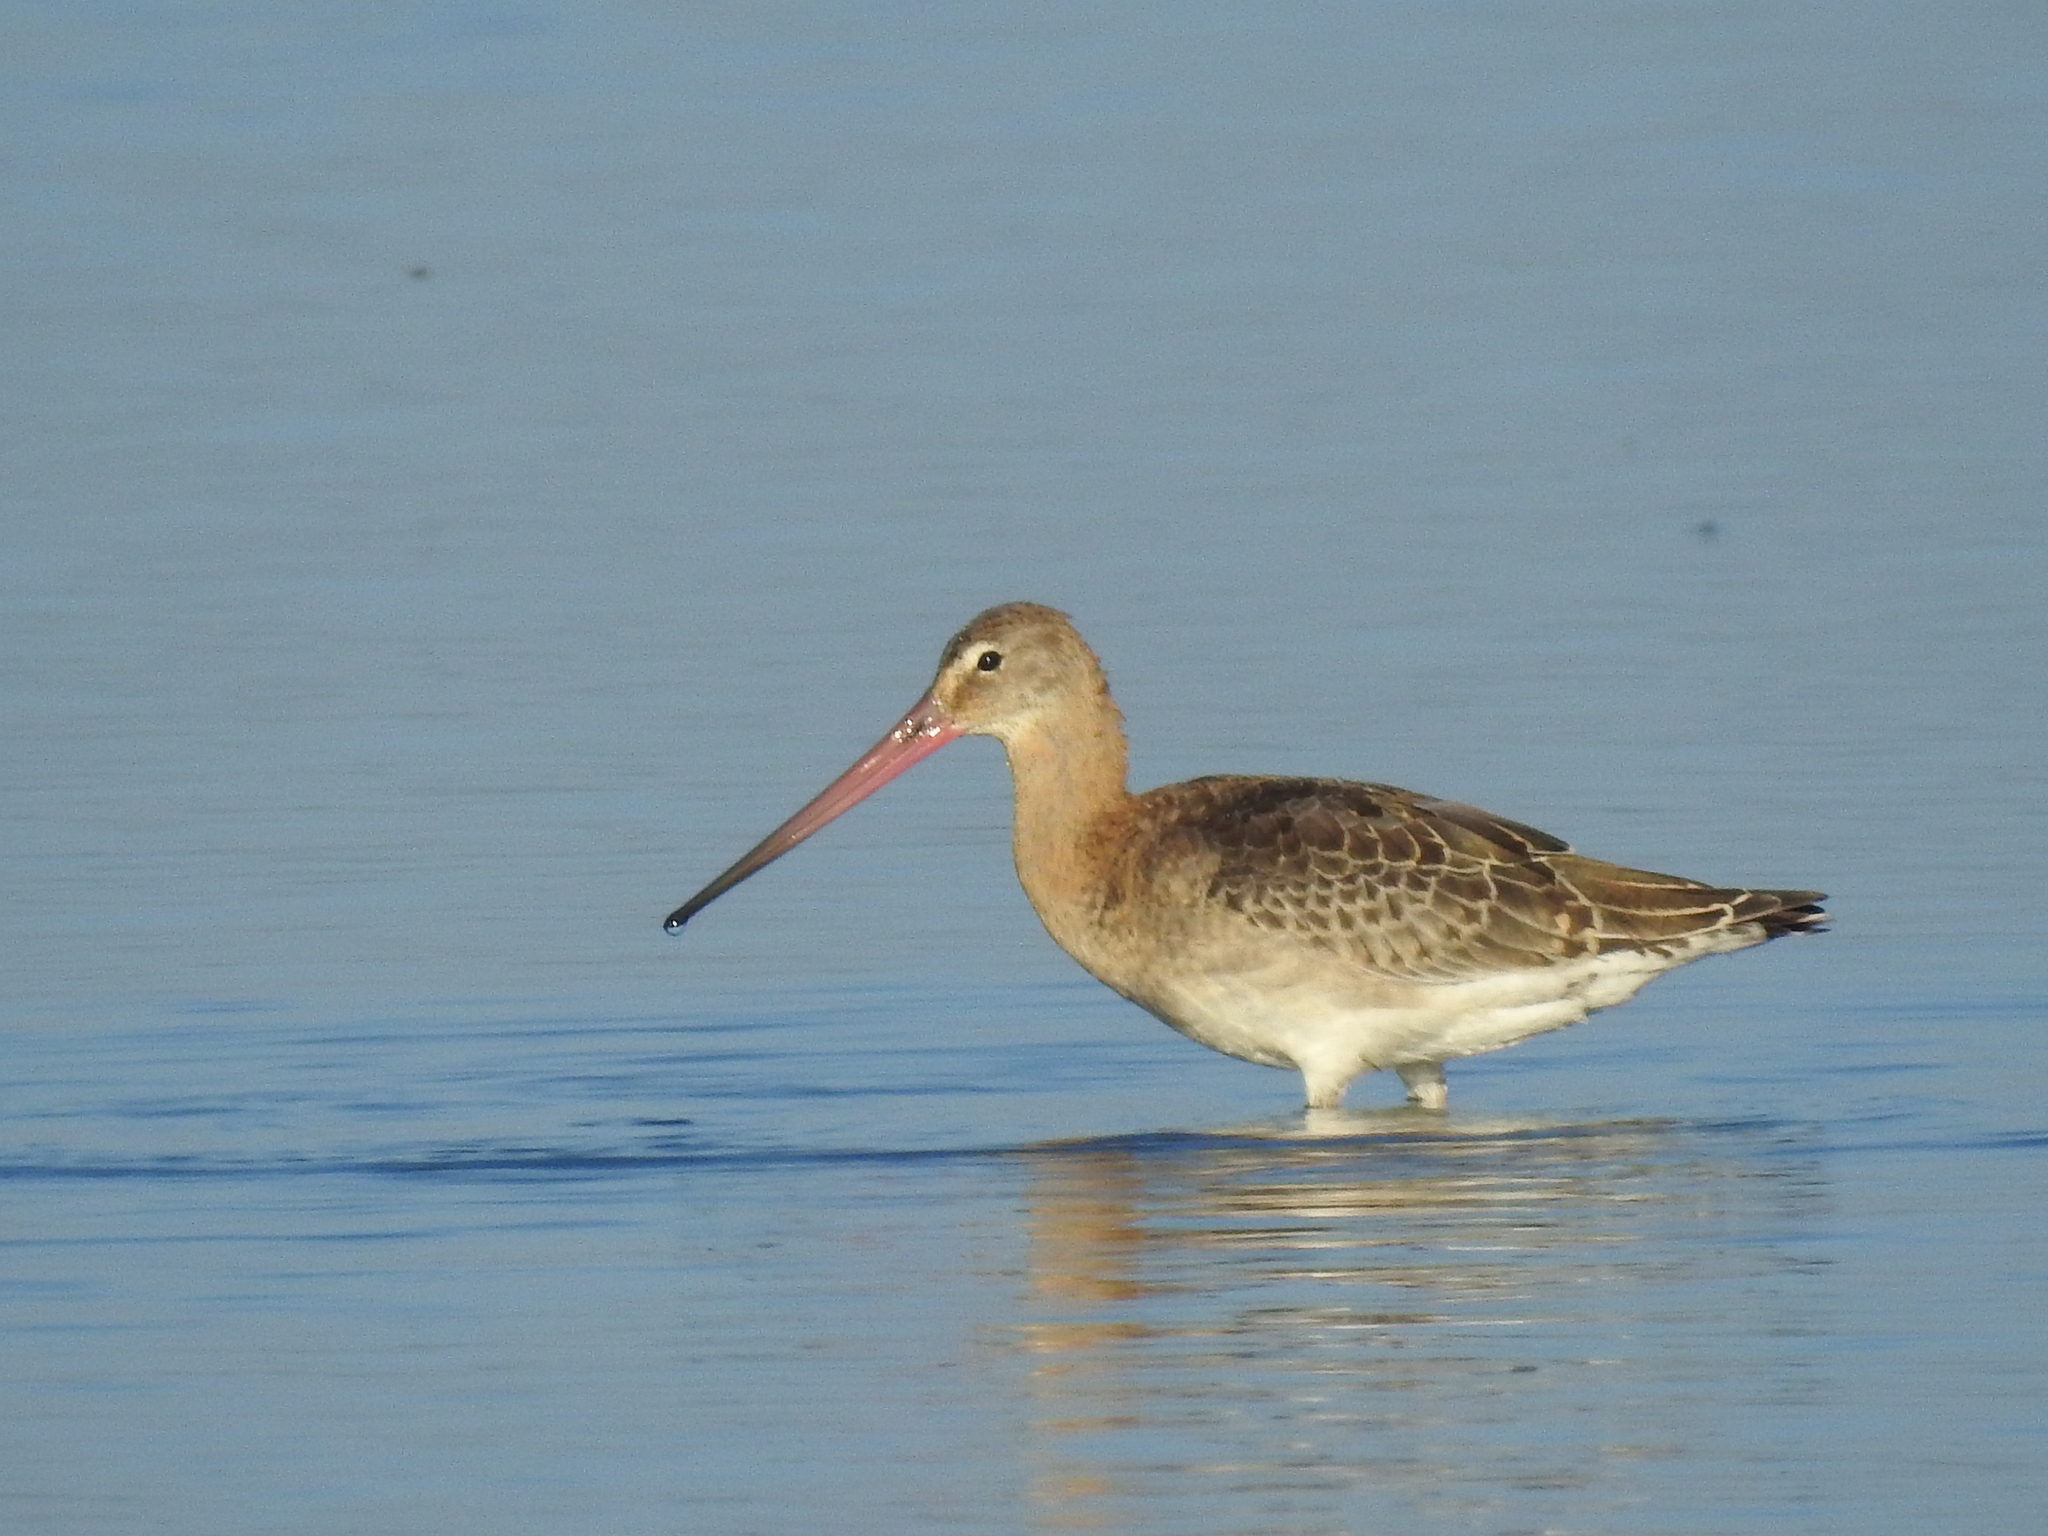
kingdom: Animalia
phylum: Chordata
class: Aves
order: Charadriiformes
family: Scolopacidae
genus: Limosa
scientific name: Limosa limosa
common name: Black-tailed godwit
